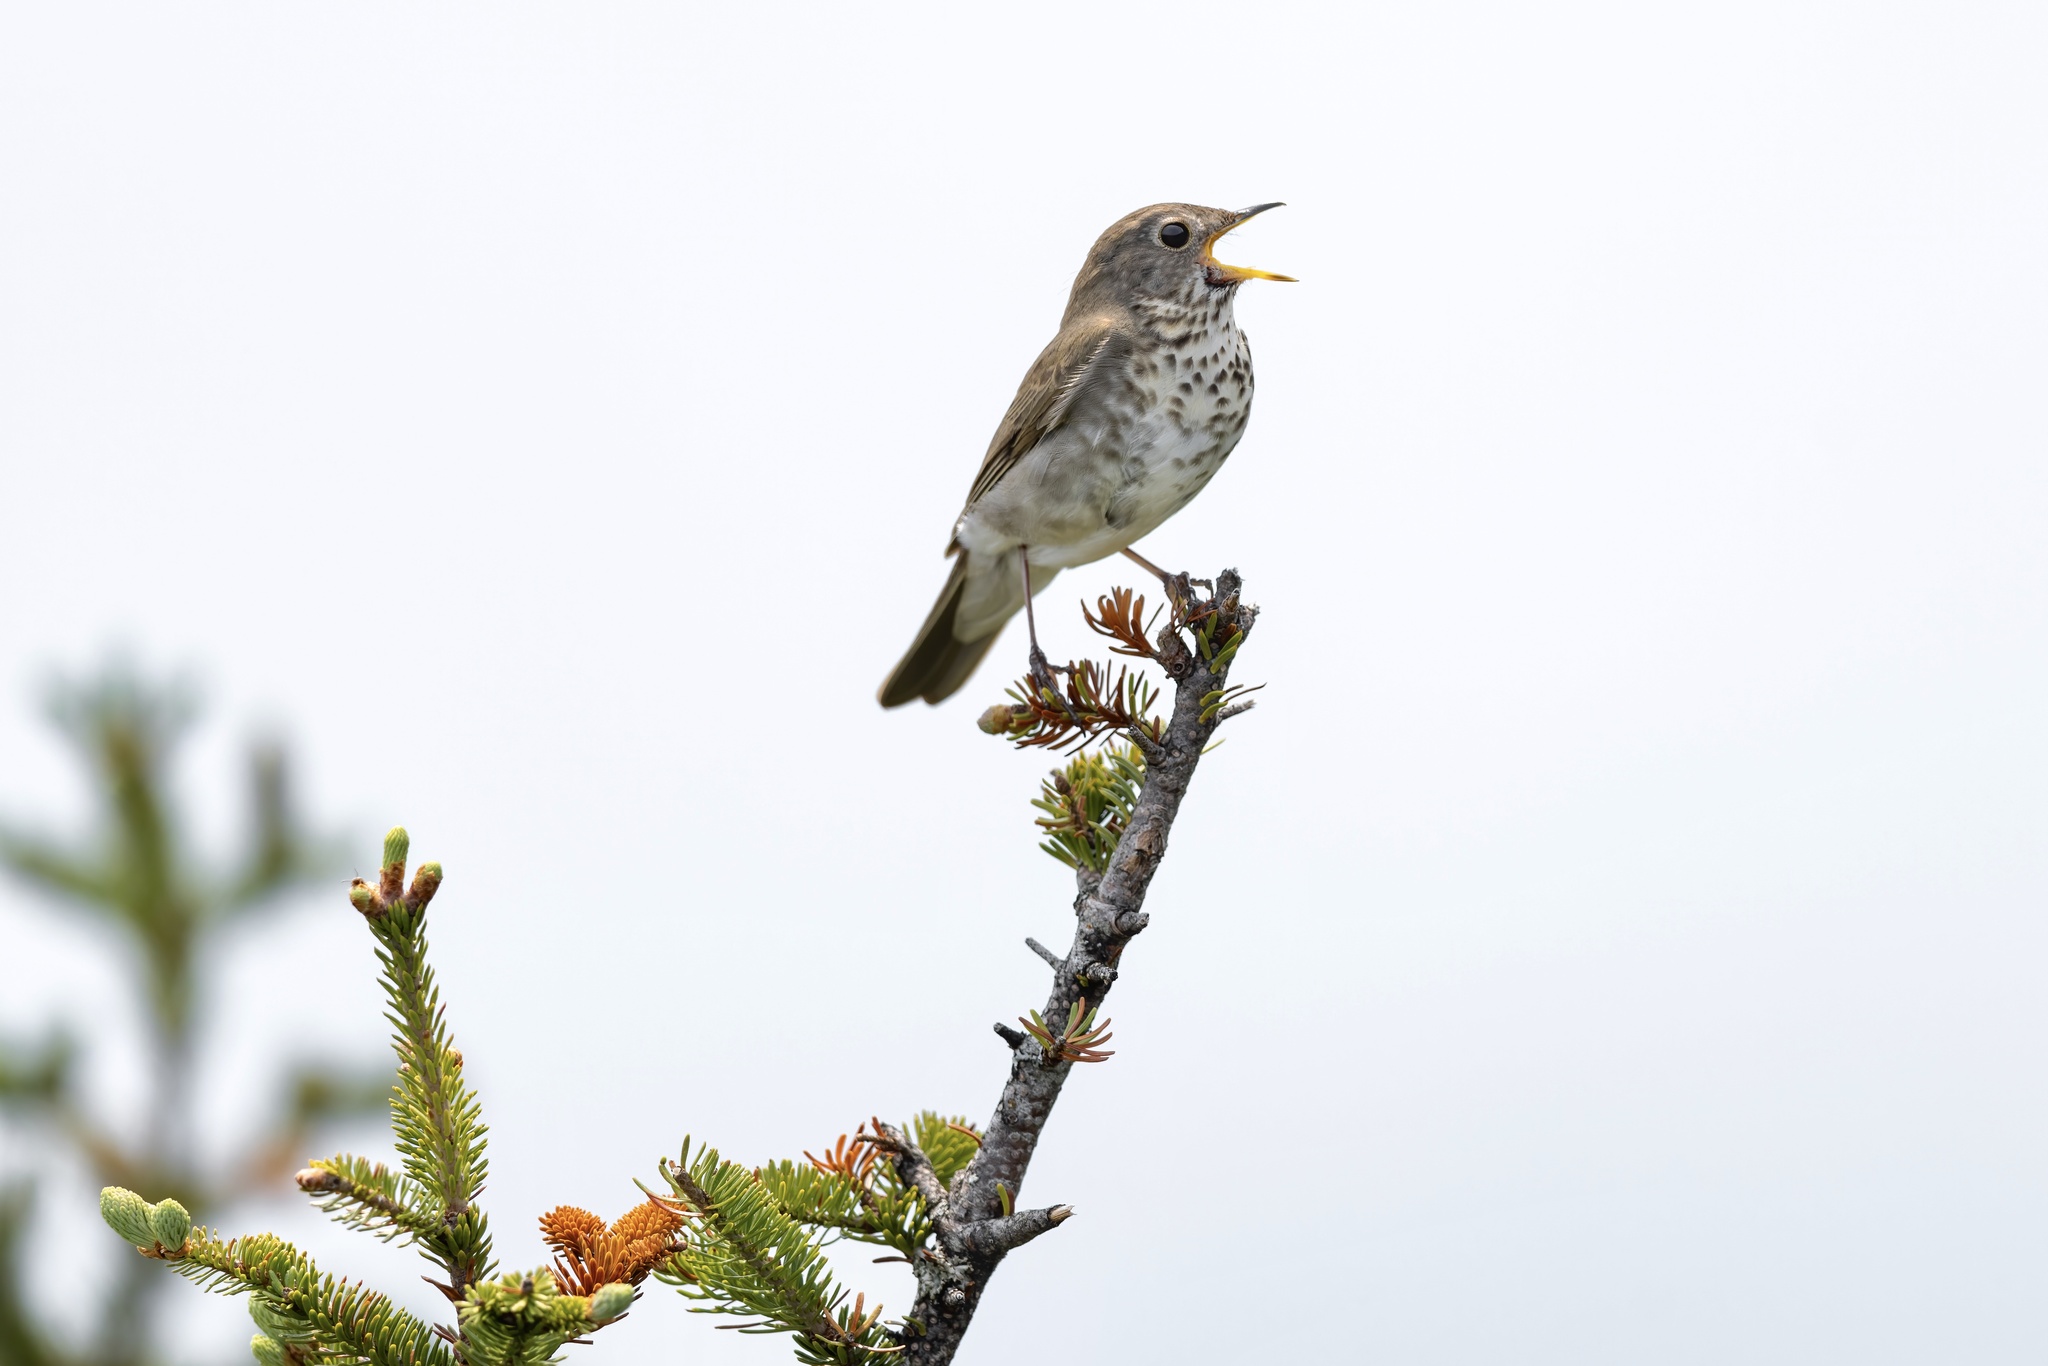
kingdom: Animalia
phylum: Chordata
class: Aves
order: Passeriformes
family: Turdidae
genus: Catharus
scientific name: Catharus bicknelli
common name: Bicknell's thrush
